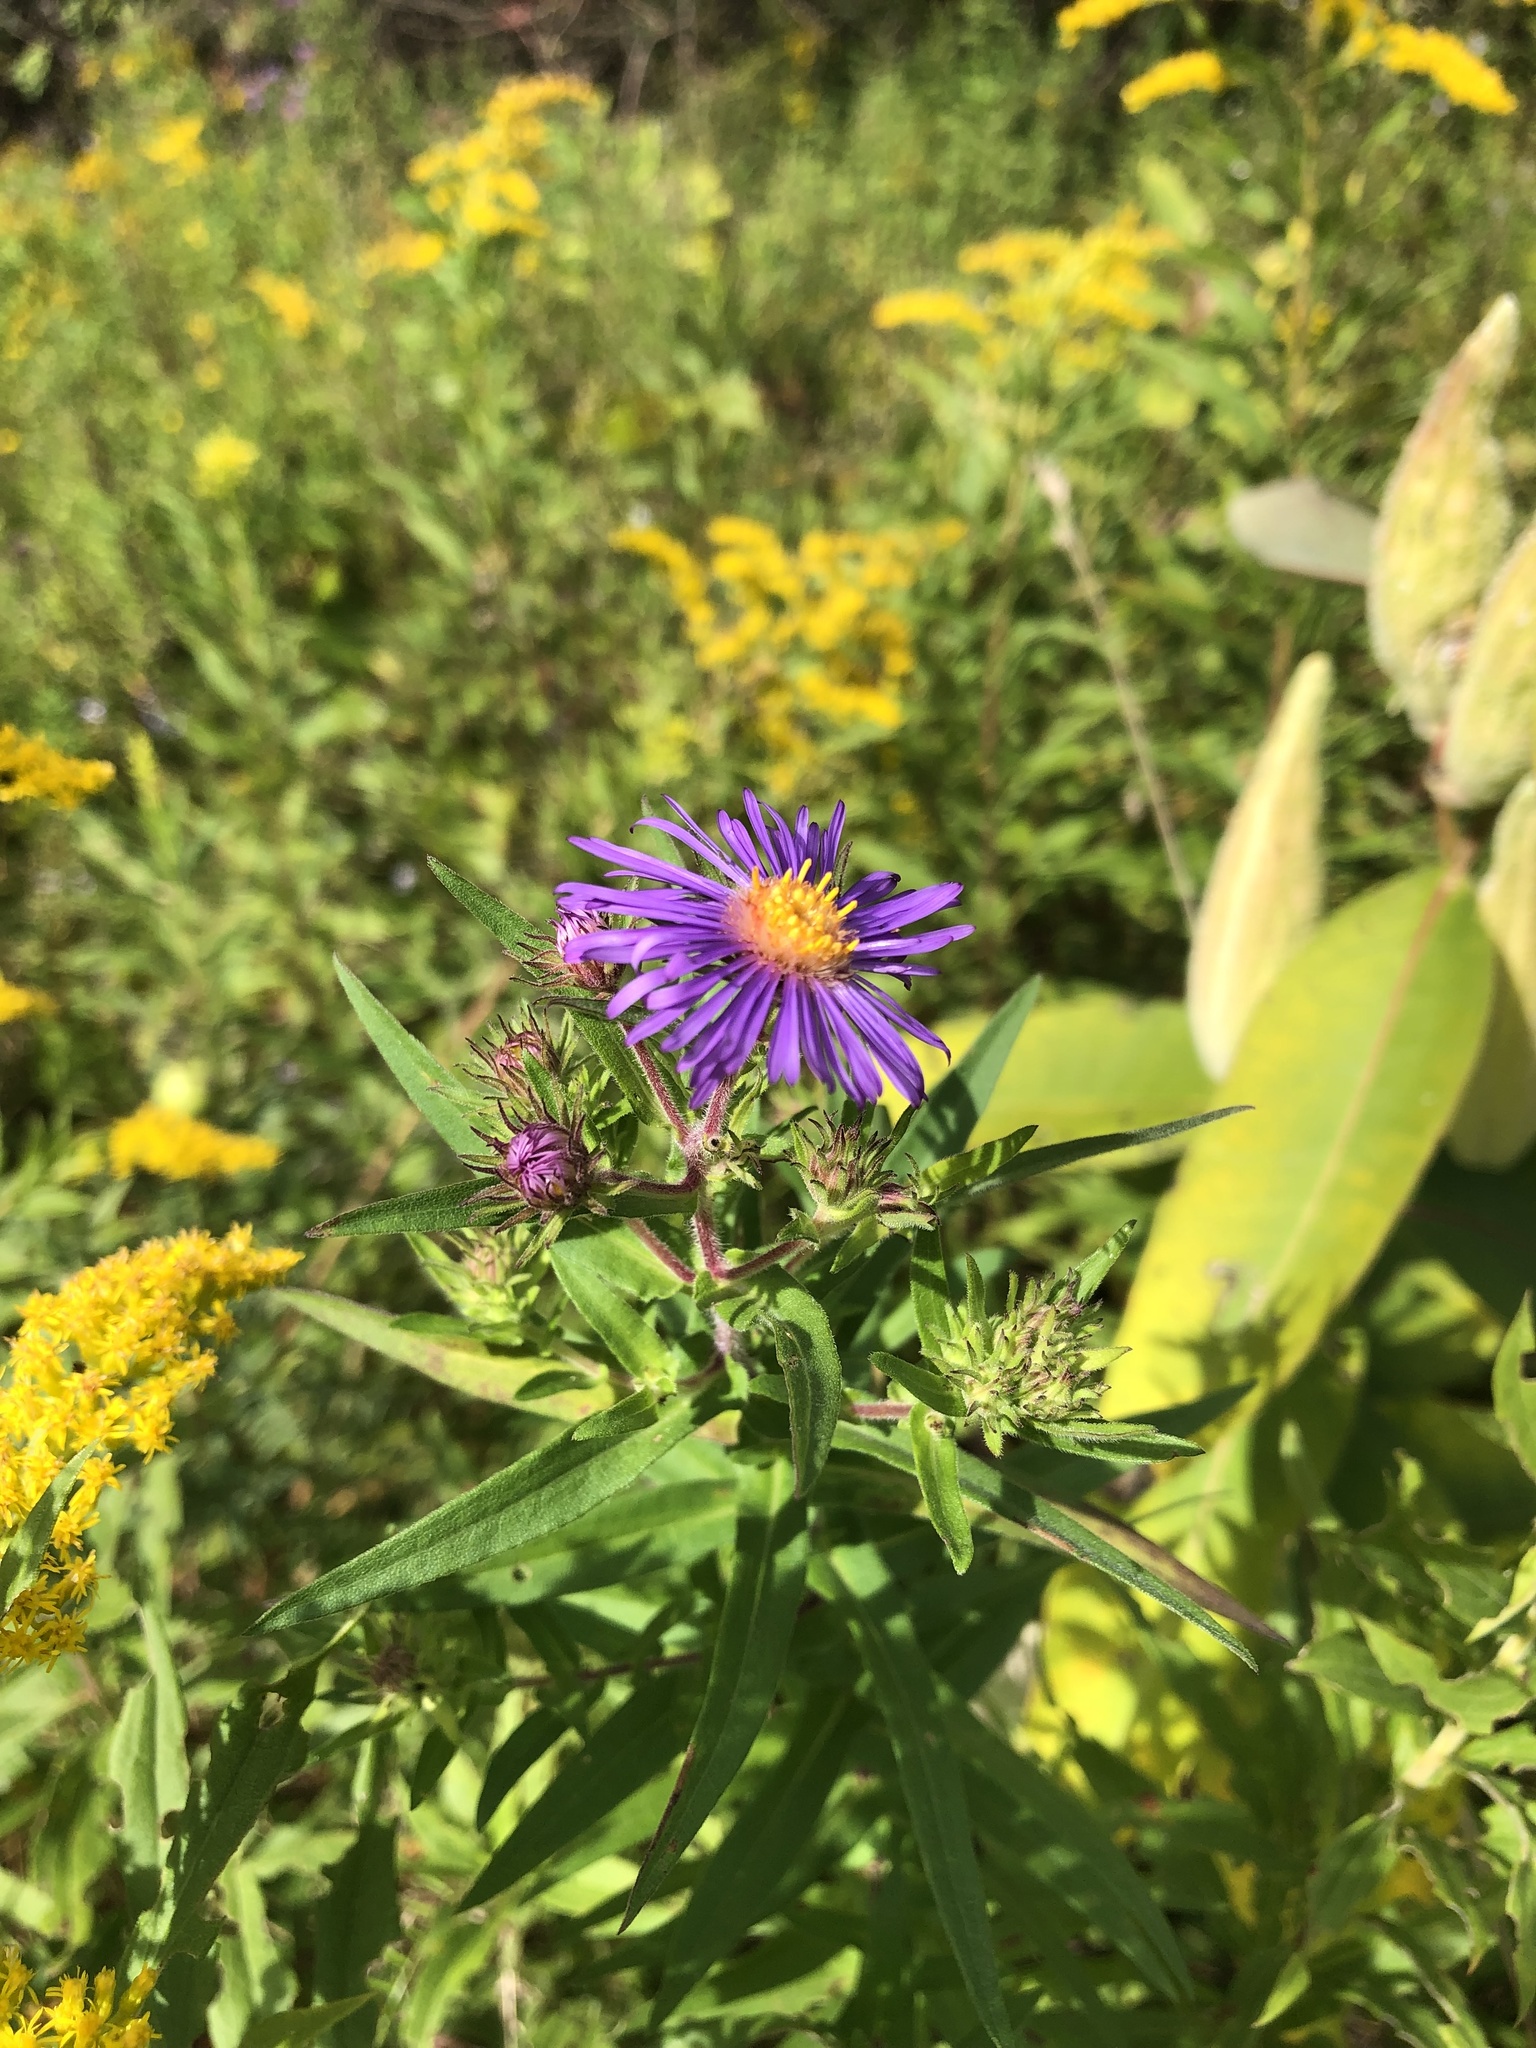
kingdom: Plantae
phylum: Tracheophyta
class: Magnoliopsida
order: Asterales
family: Asteraceae
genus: Symphyotrichum
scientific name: Symphyotrichum novae-angliae
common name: Michaelmas daisy
